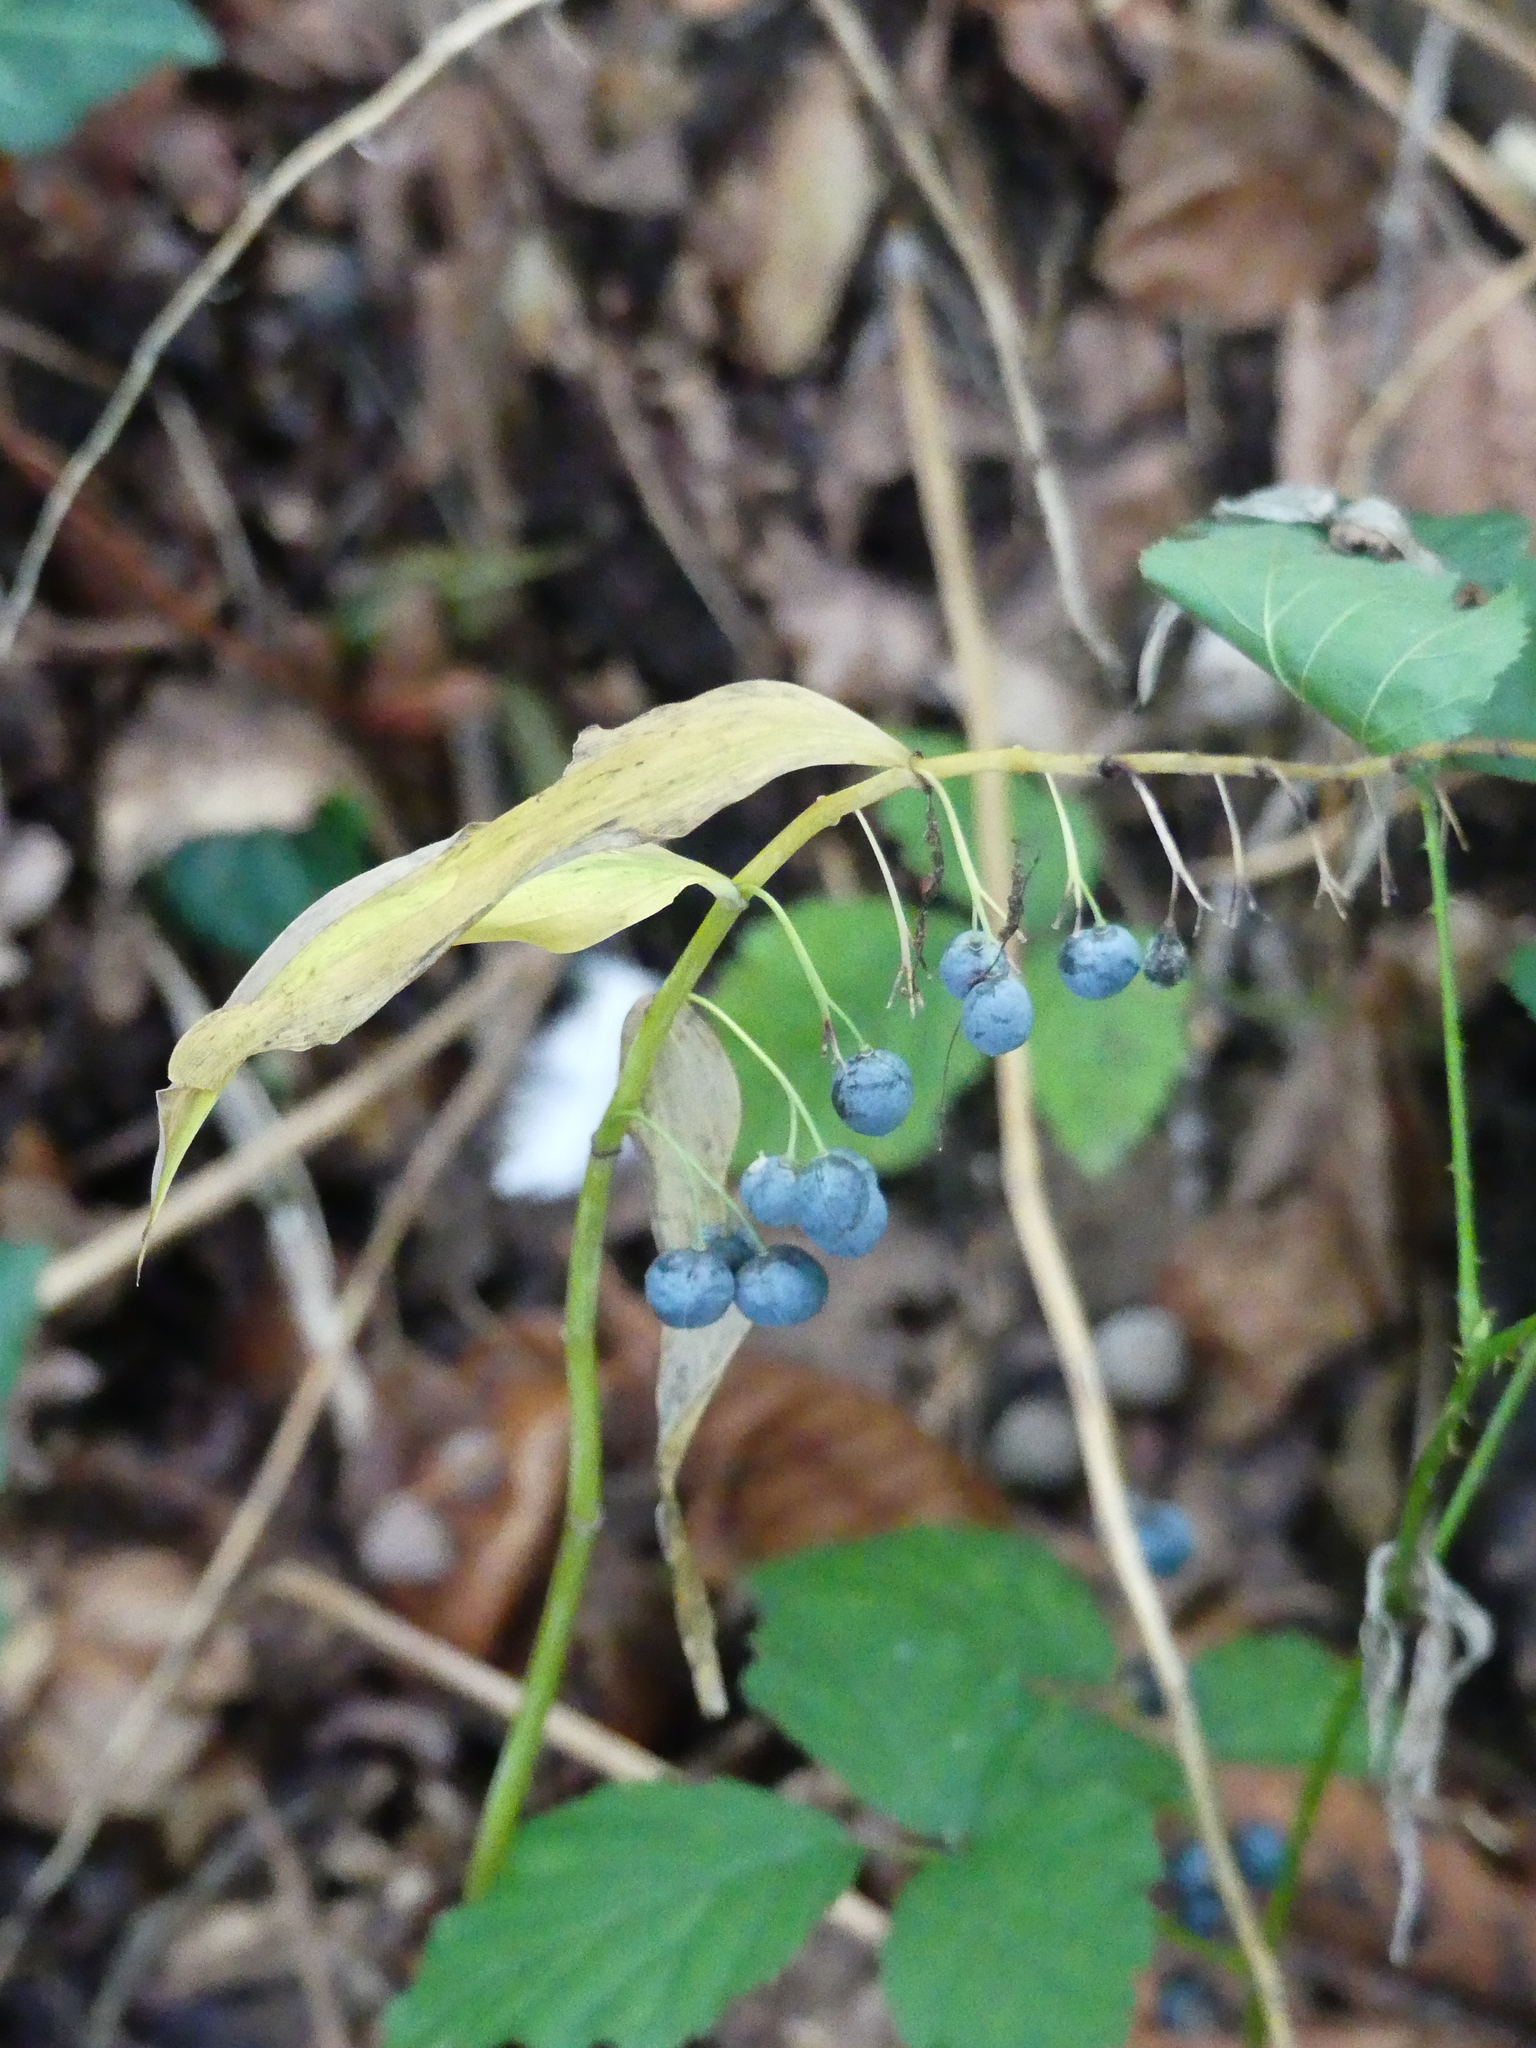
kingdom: Plantae
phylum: Tracheophyta
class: Liliopsida
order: Asparagales
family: Asparagaceae
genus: Polygonatum
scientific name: Polygonatum multiflorum
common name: Solomon's-seal
